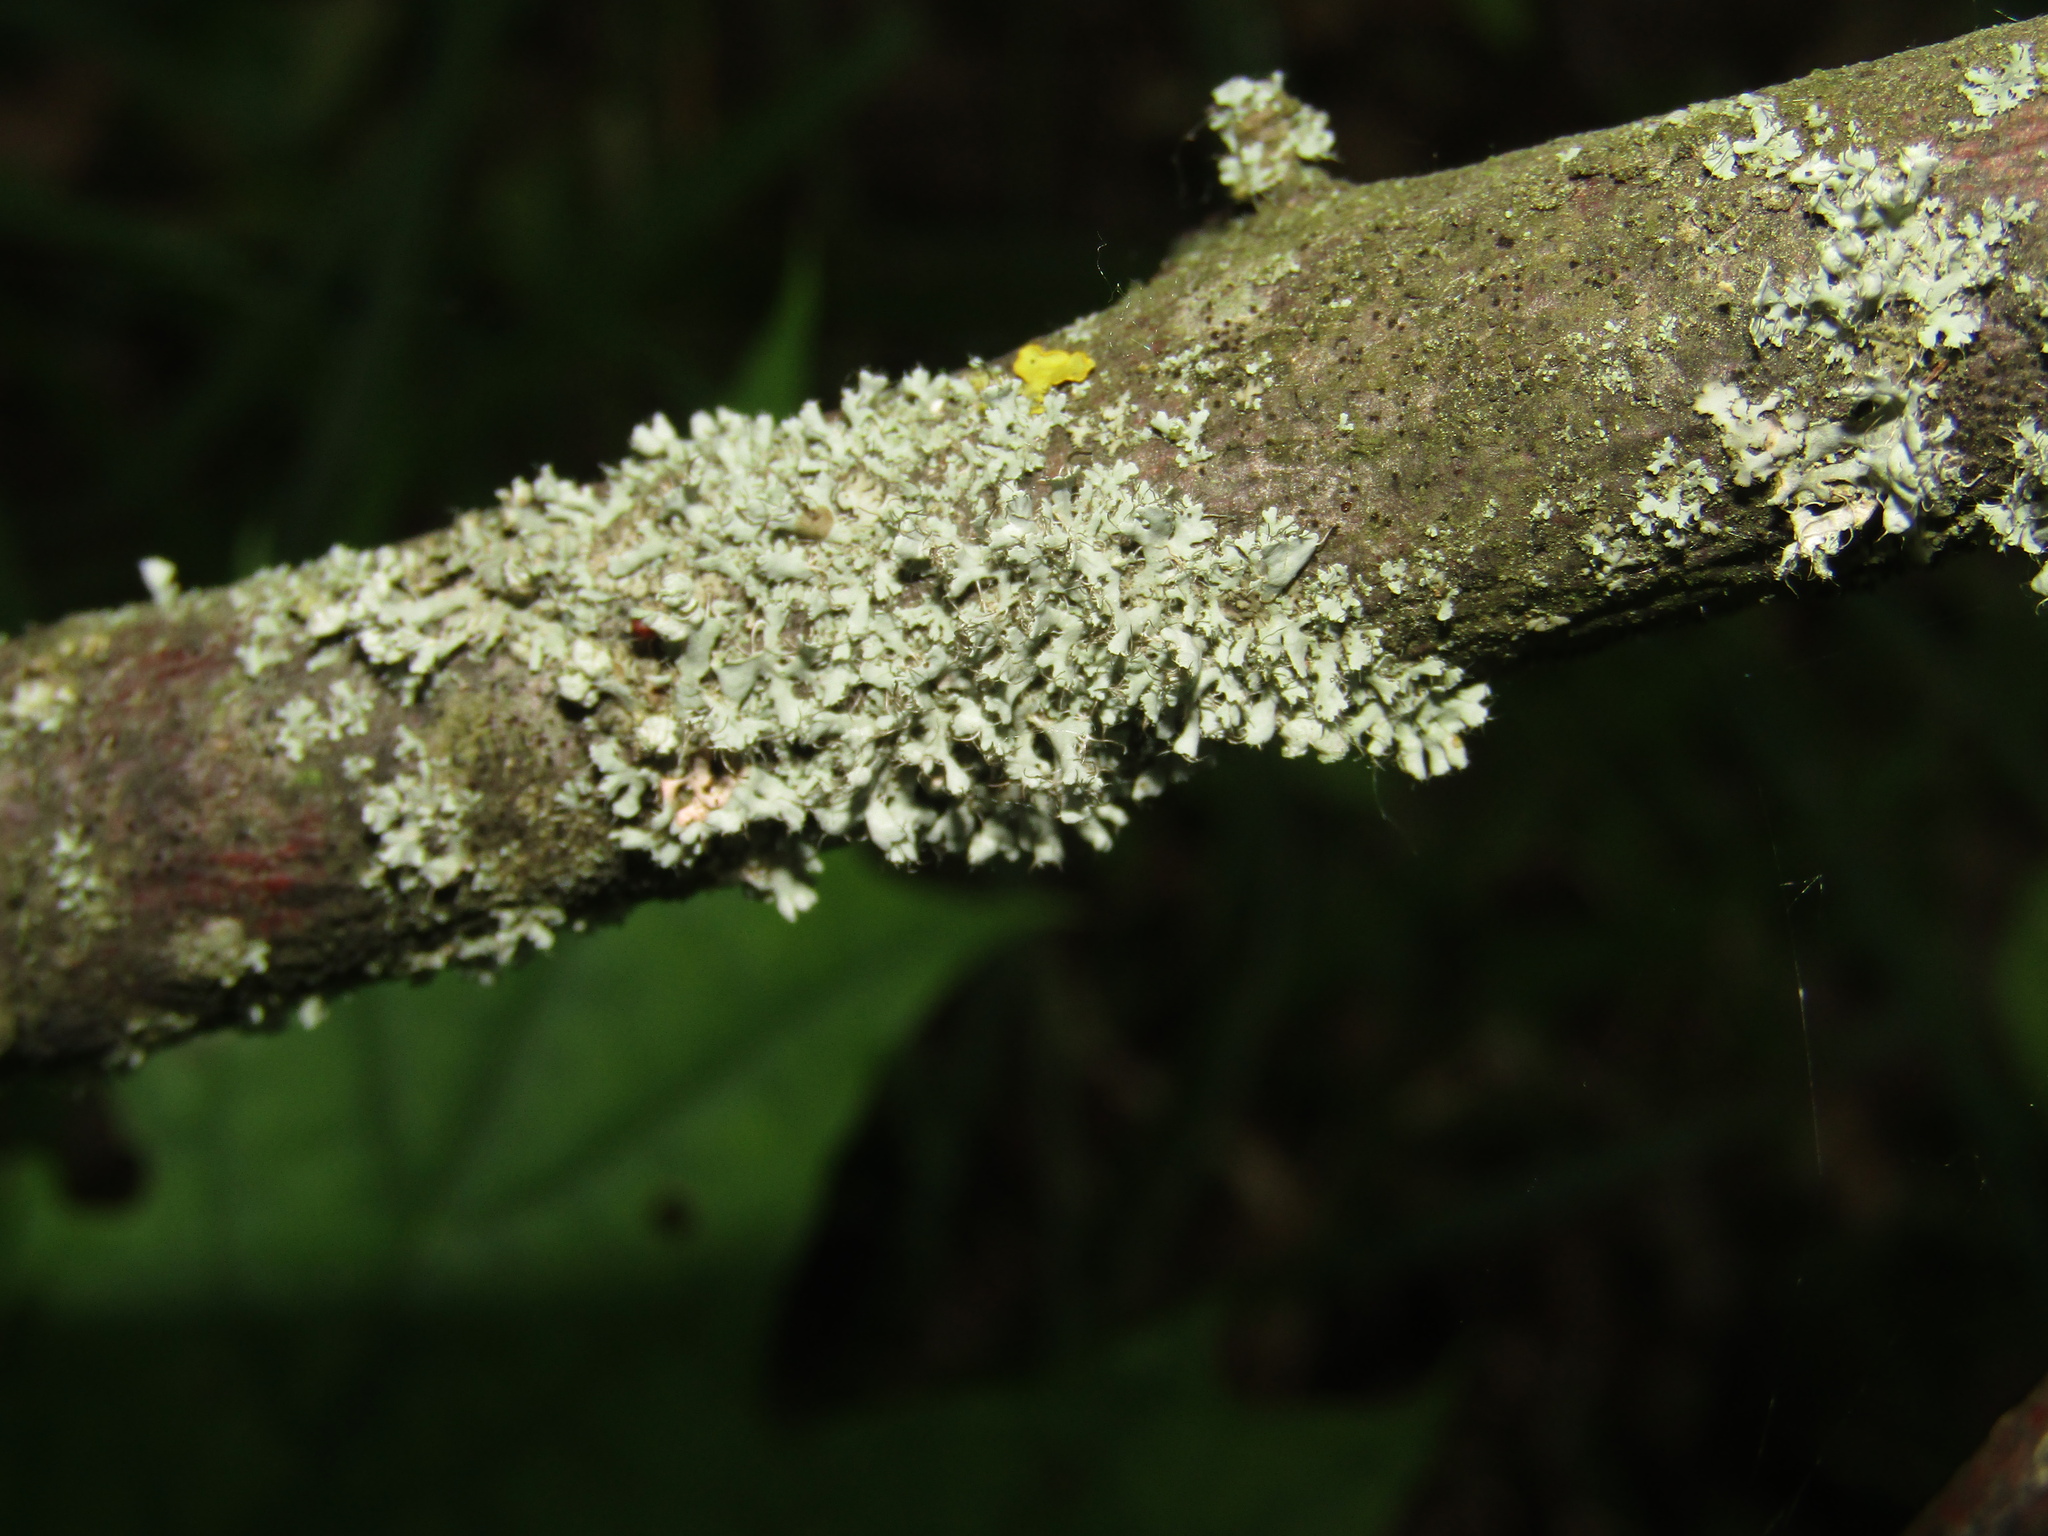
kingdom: Fungi
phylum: Ascomycota
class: Lecanoromycetes
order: Caliciales
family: Physciaceae
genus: Physcia
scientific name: Physcia adscendens
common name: Hooded rosette lichen
